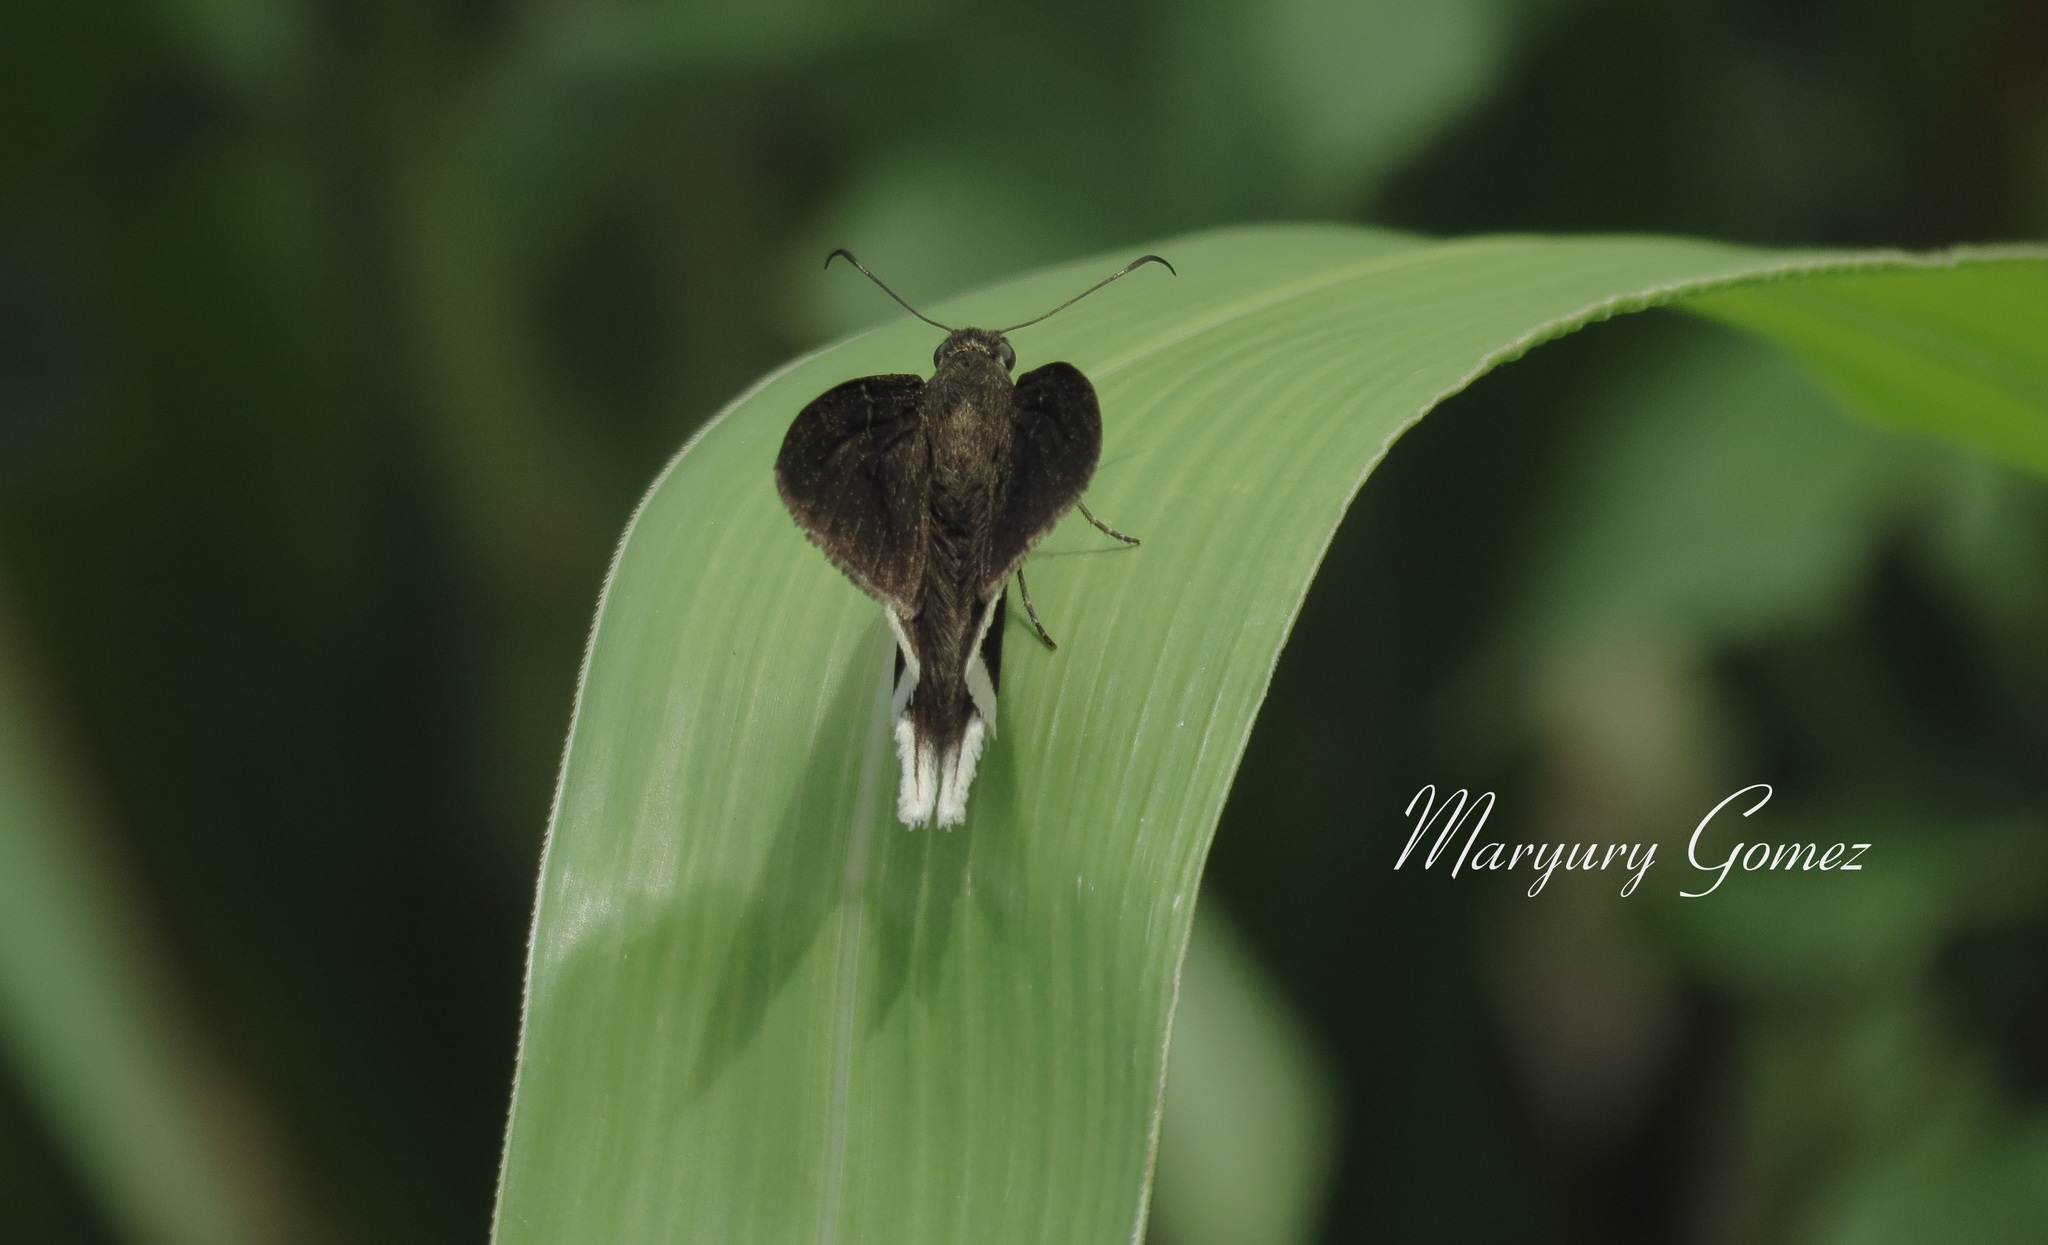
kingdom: Animalia
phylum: Arthropoda
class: Insecta
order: Lepidoptera
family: Hesperiidae
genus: Achalarus
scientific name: Achalarus
